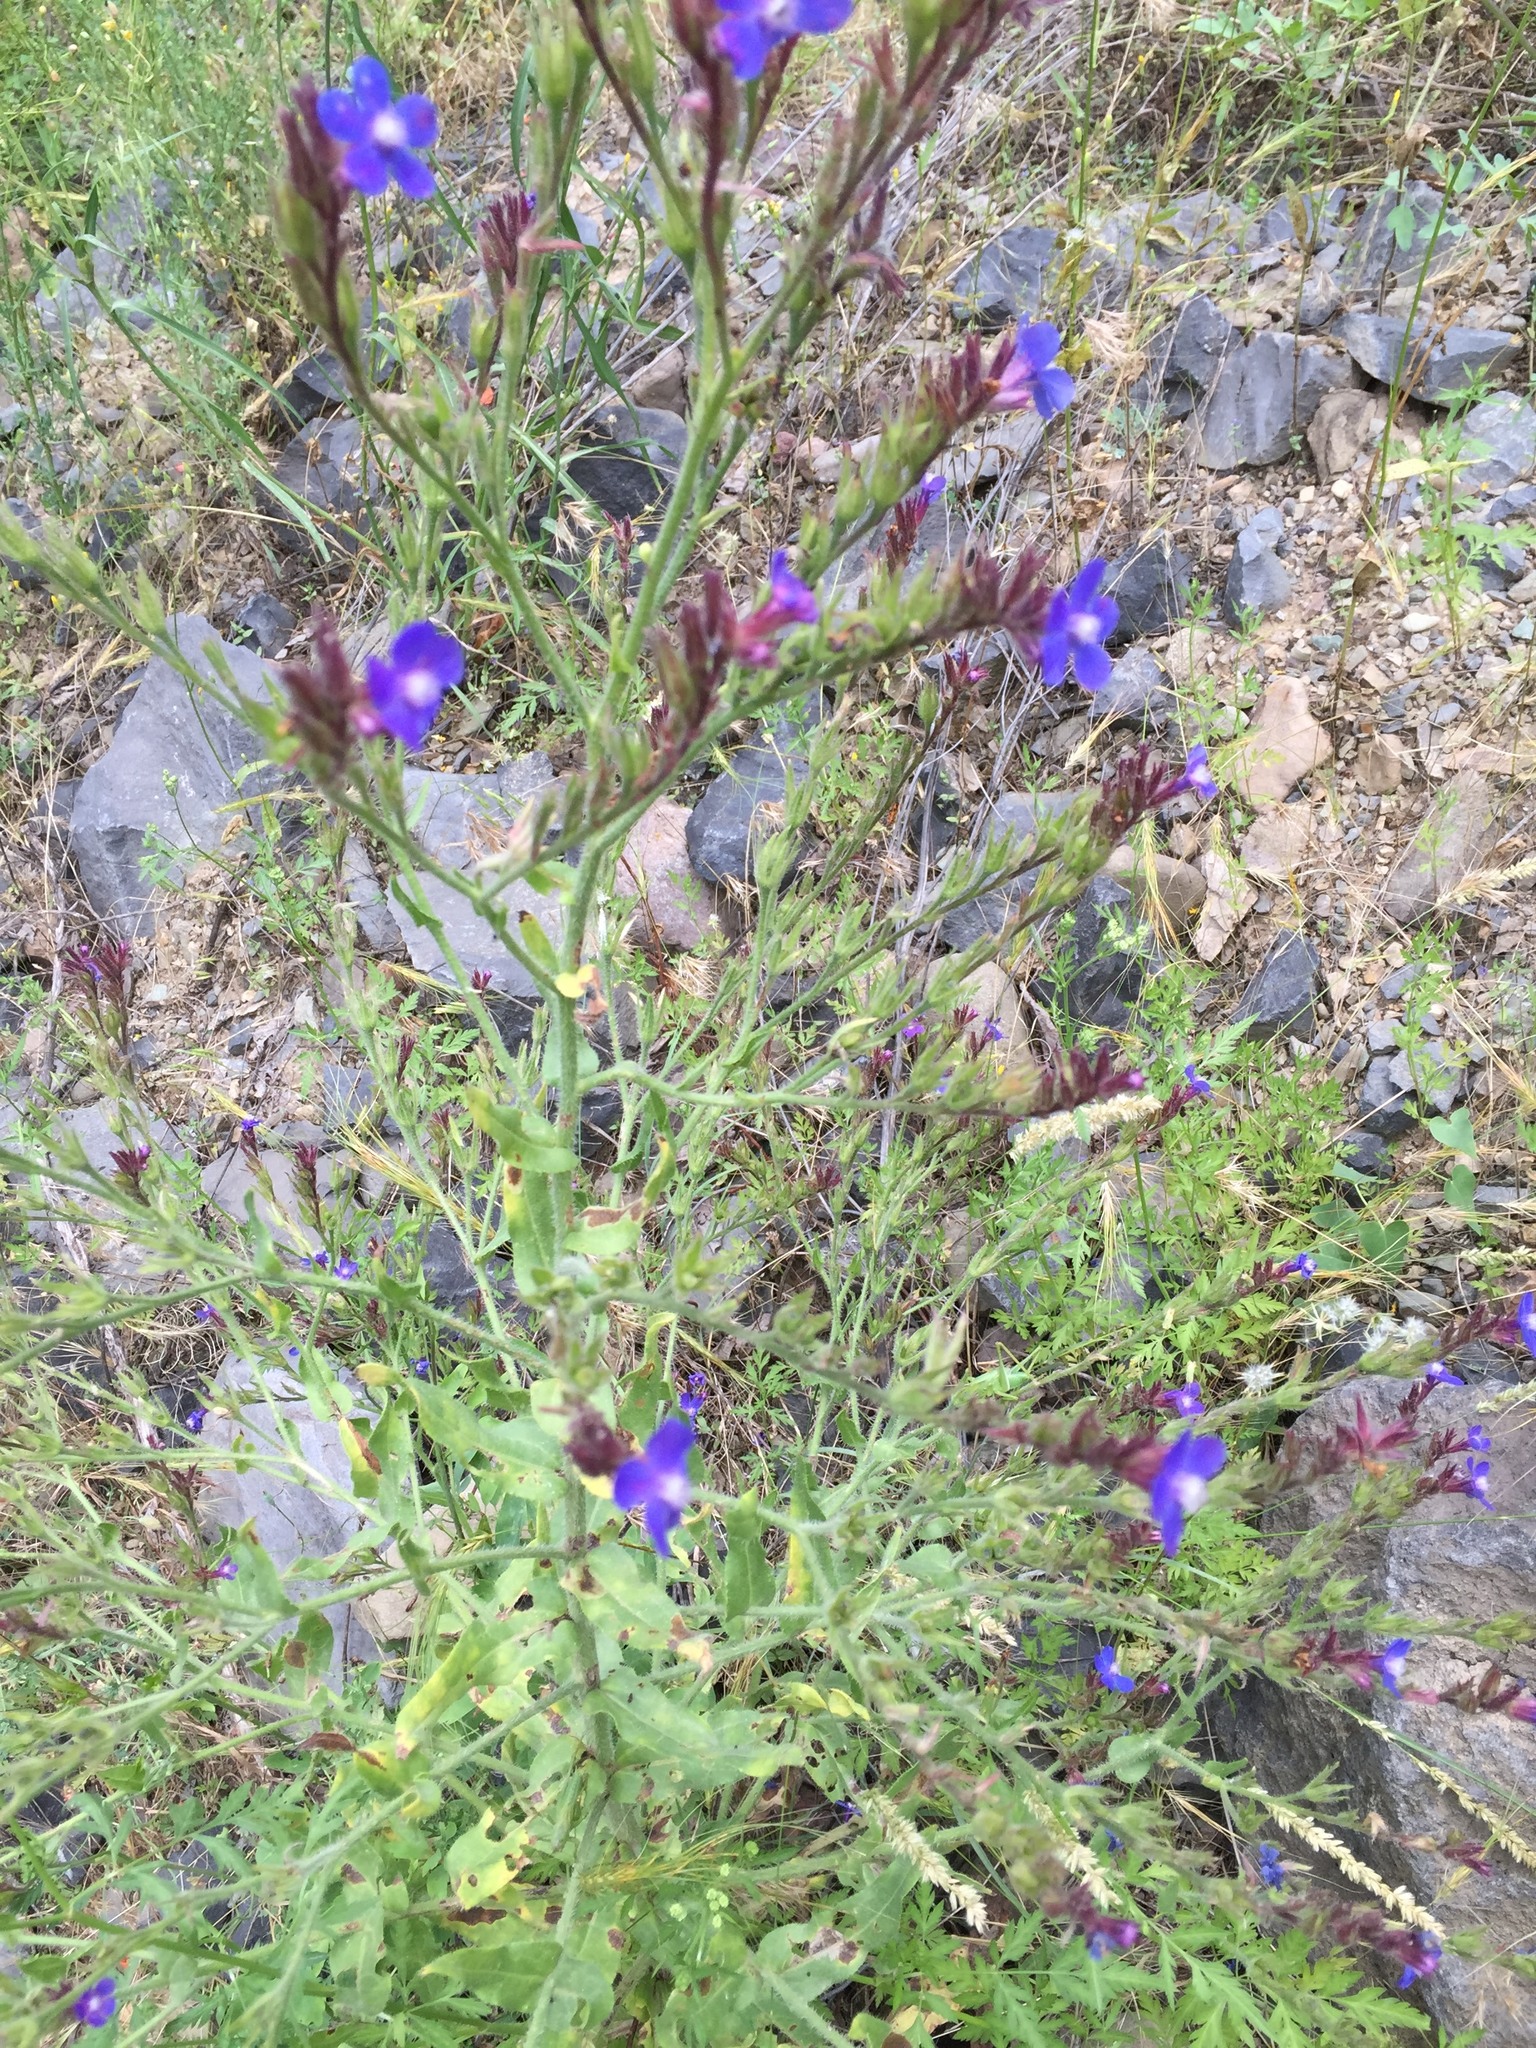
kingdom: Plantae
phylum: Tracheophyta
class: Magnoliopsida
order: Boraginales
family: Boraginaceae
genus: Anchusa
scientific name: Anchusa azurea
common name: Garden anchusa
